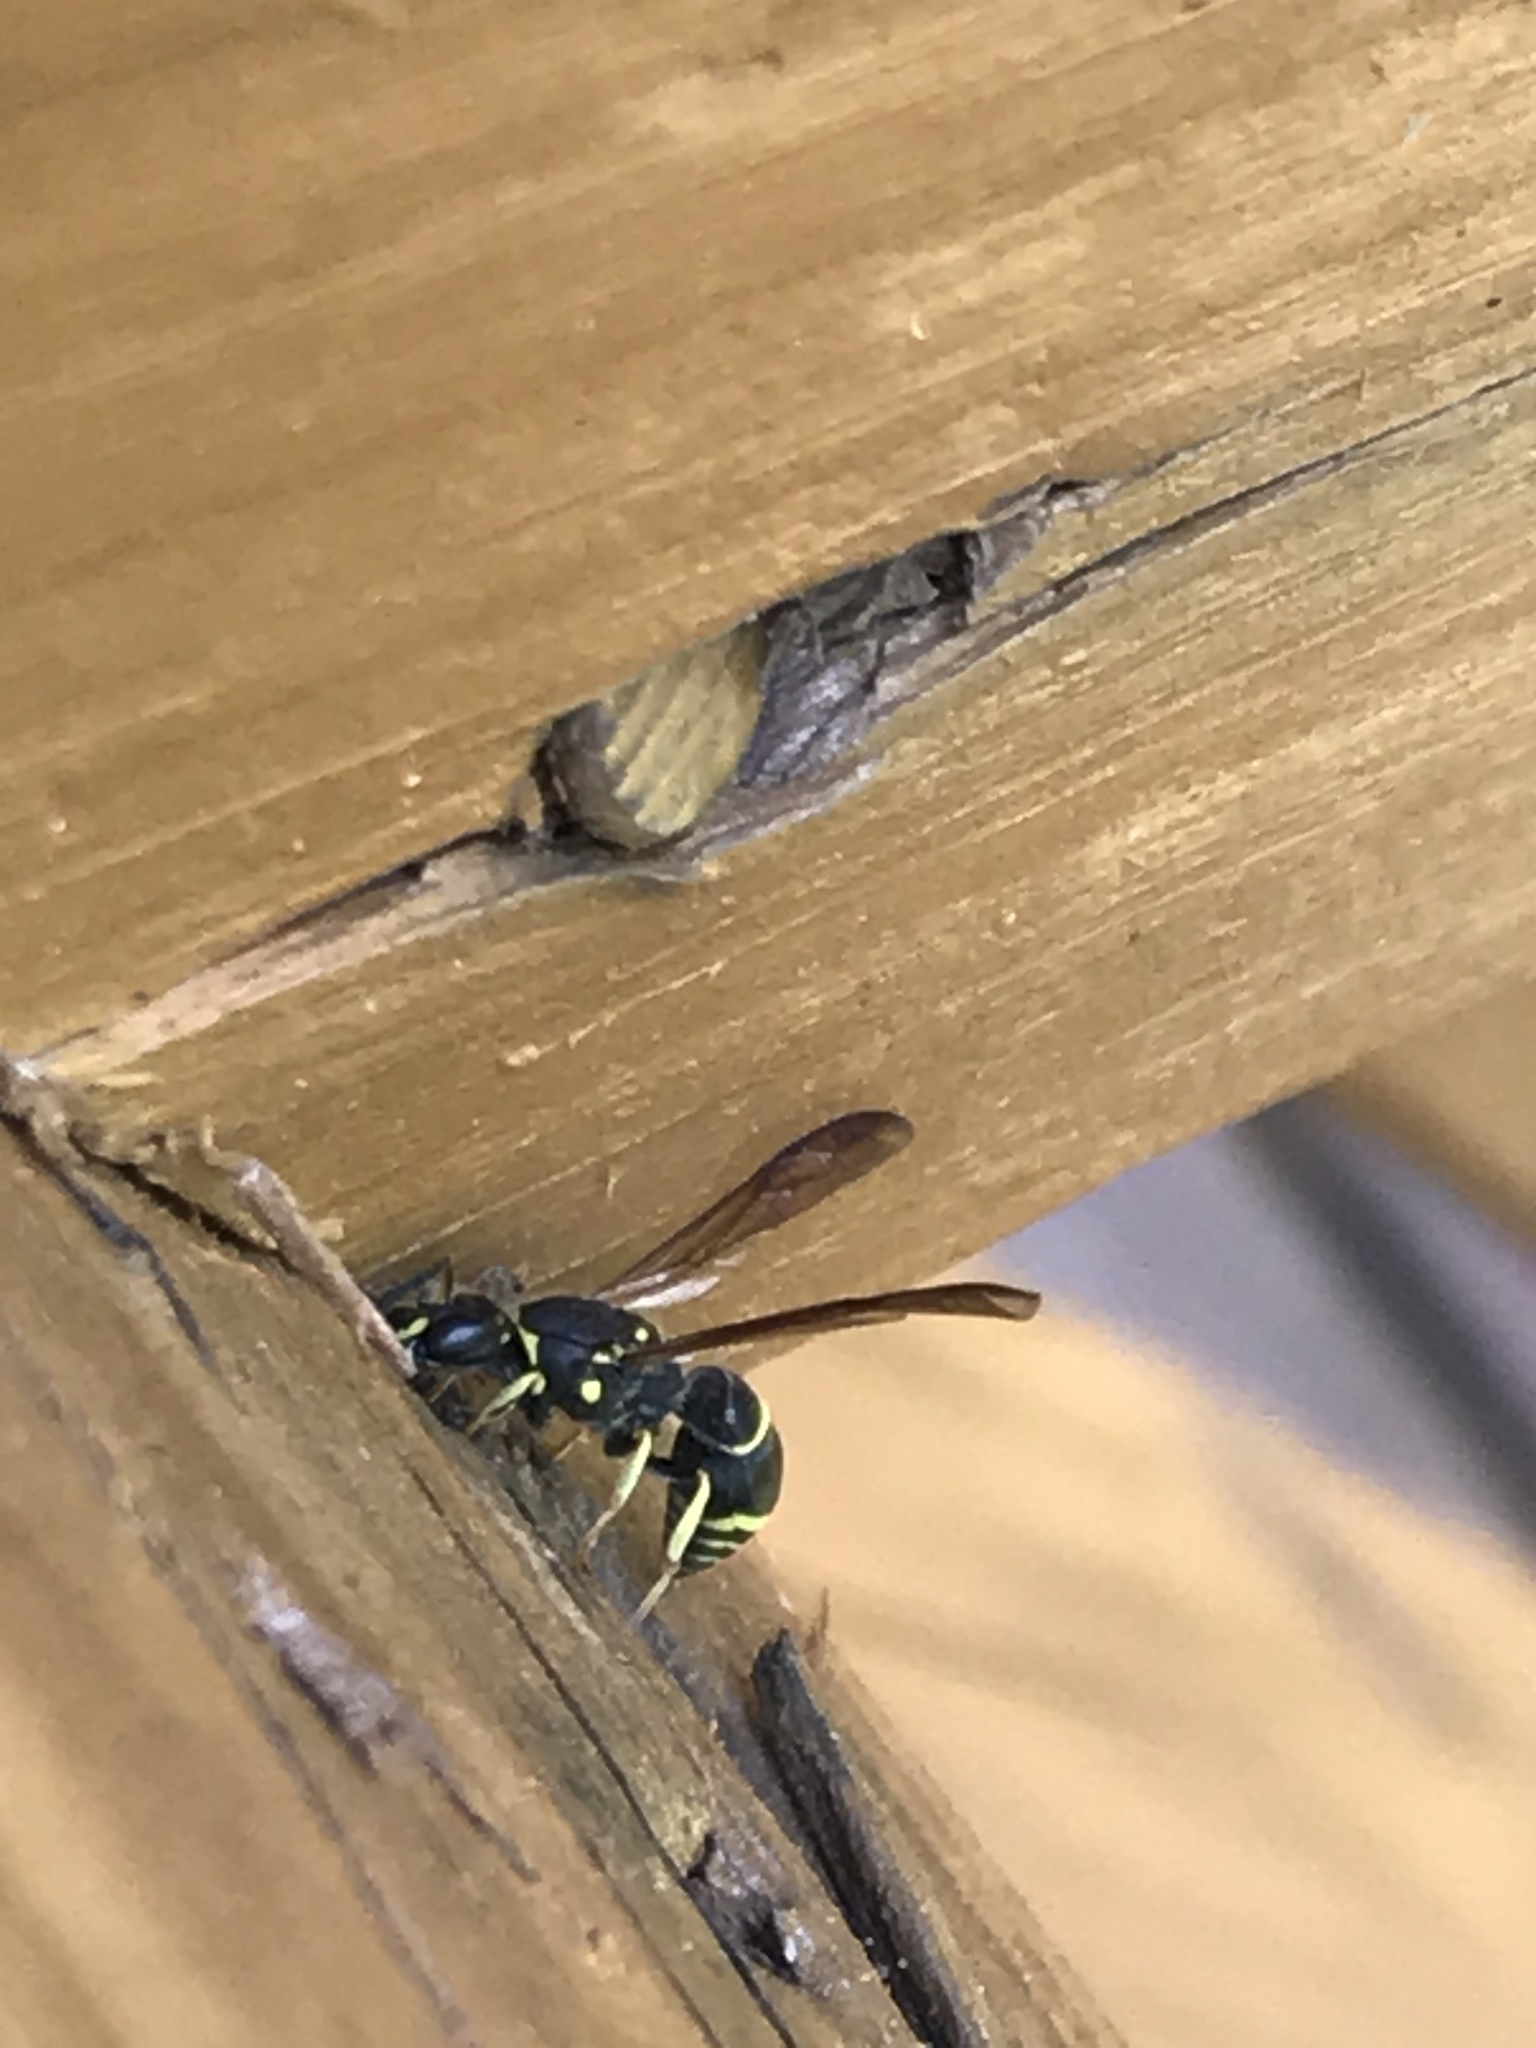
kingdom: Animalia
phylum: Arthropoda
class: Insecta
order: Hymenoptera
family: Vespidae
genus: Ancistrocerus
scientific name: Ancistrocerus adiabatus
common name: Bramble mason wasp
